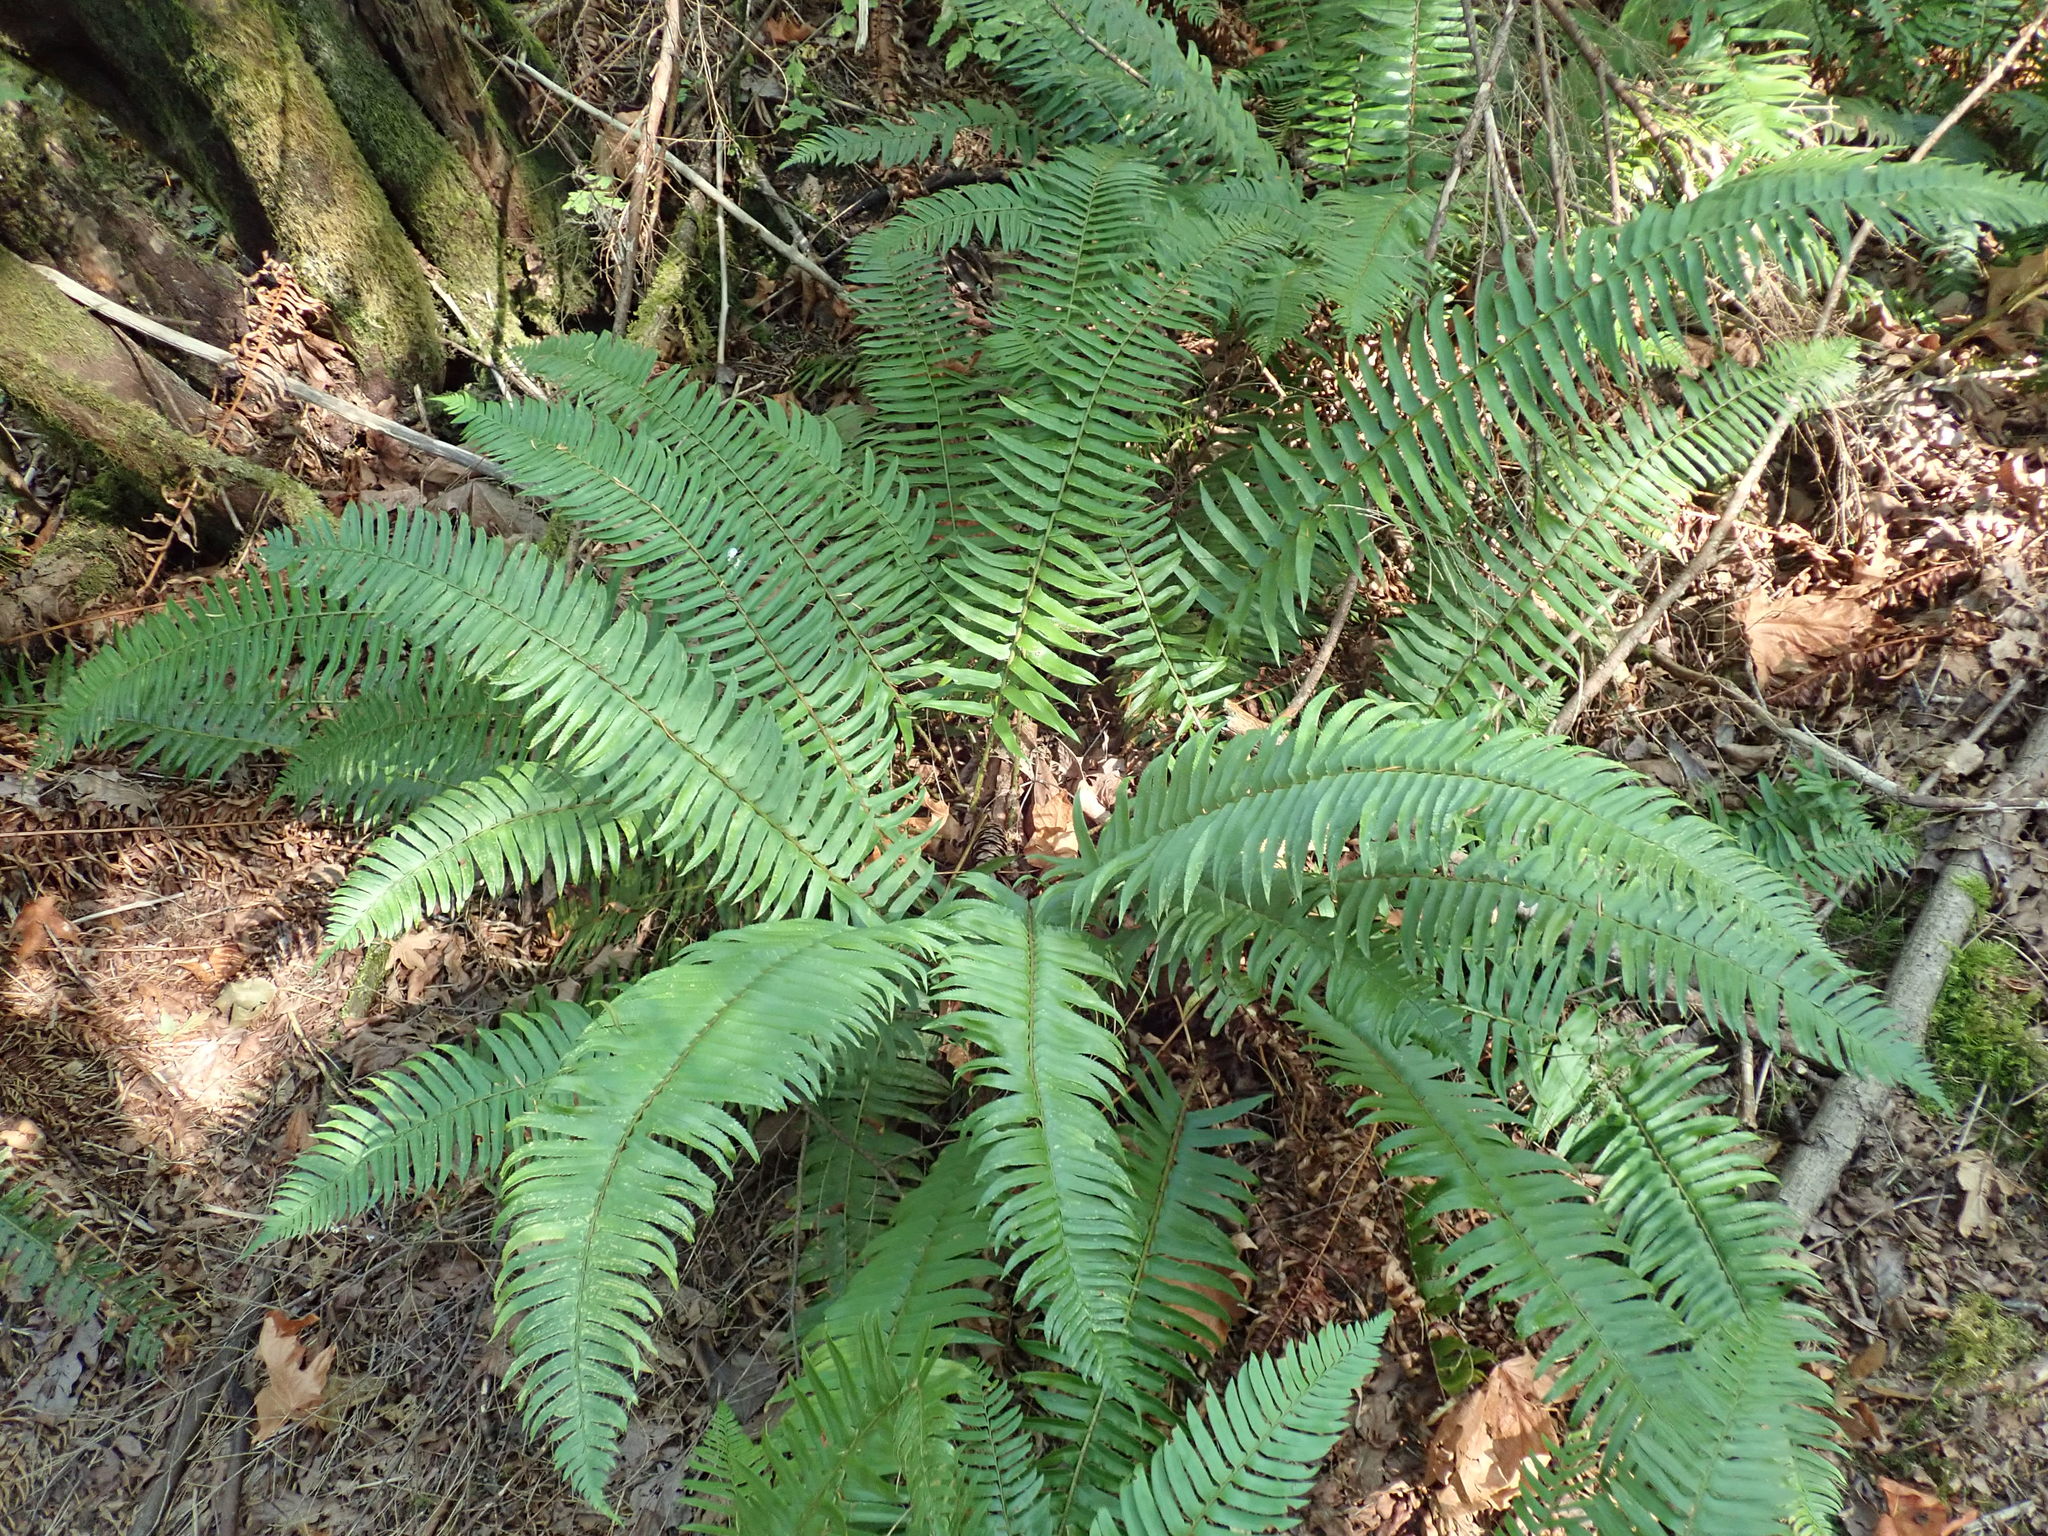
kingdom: Plantae
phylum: Tracheophyta
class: Polypodiopsida
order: Polypodiales
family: Dryopteridaceae
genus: Polystichum
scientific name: Polystichum munitum
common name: Western sword-fern
